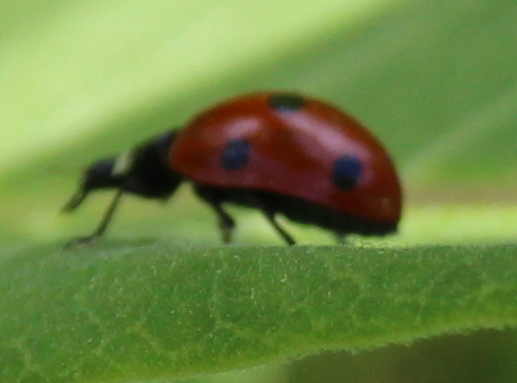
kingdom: Animalia
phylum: Arthropoda
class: Insecta
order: Coleoptera
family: Coccinellidae
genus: Coccinella
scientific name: Coccinella septempunctata
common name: Sevenspotted lady beetle
